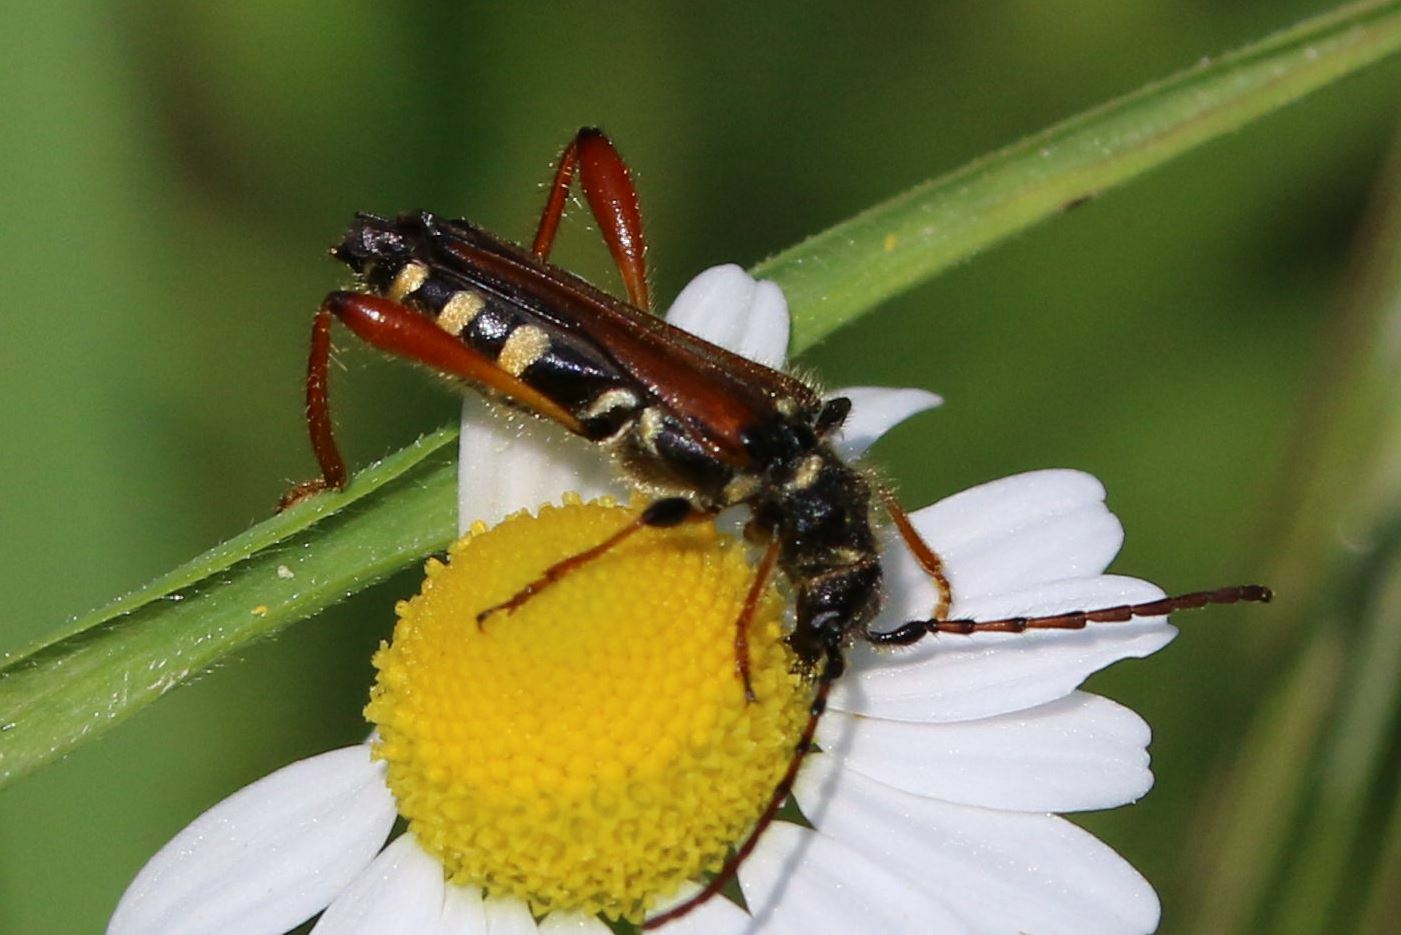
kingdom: Animalia
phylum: Arthropoda
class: Insecta
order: Coleoptera
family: Cerambycidae
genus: Stenopterus
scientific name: Stenopterus rufus
